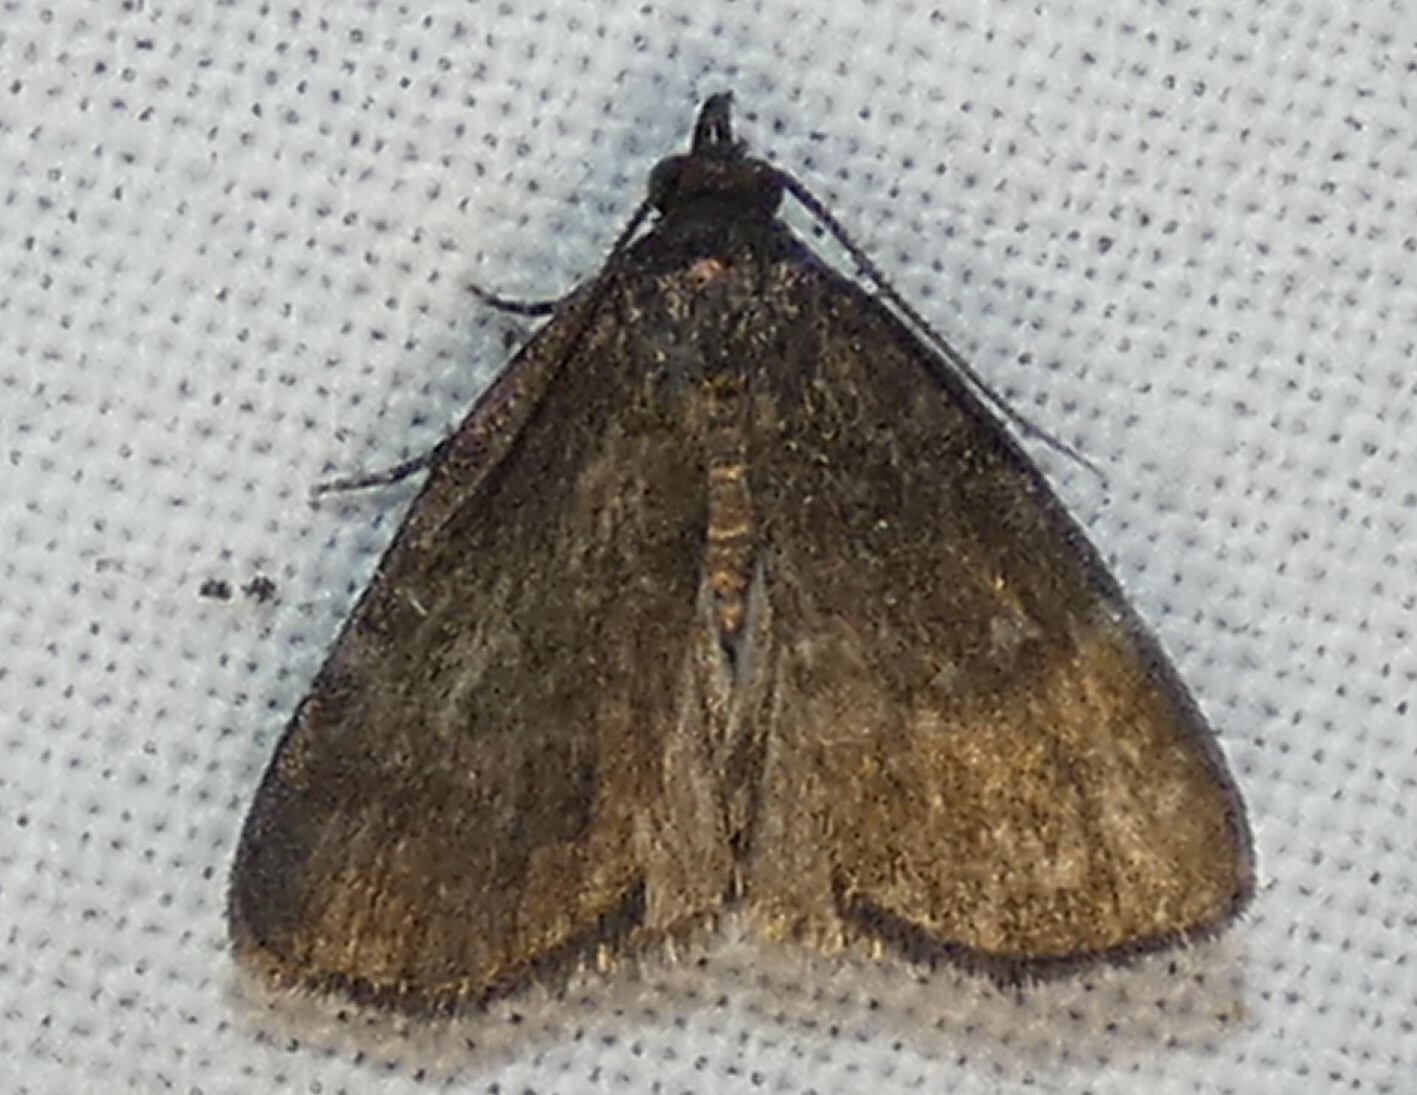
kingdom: Animalia
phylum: Arthropoda
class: Insecta
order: Lepidoptera
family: Erebidae
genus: Idia
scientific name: Idia rotundalis
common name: Rotund idia moth
